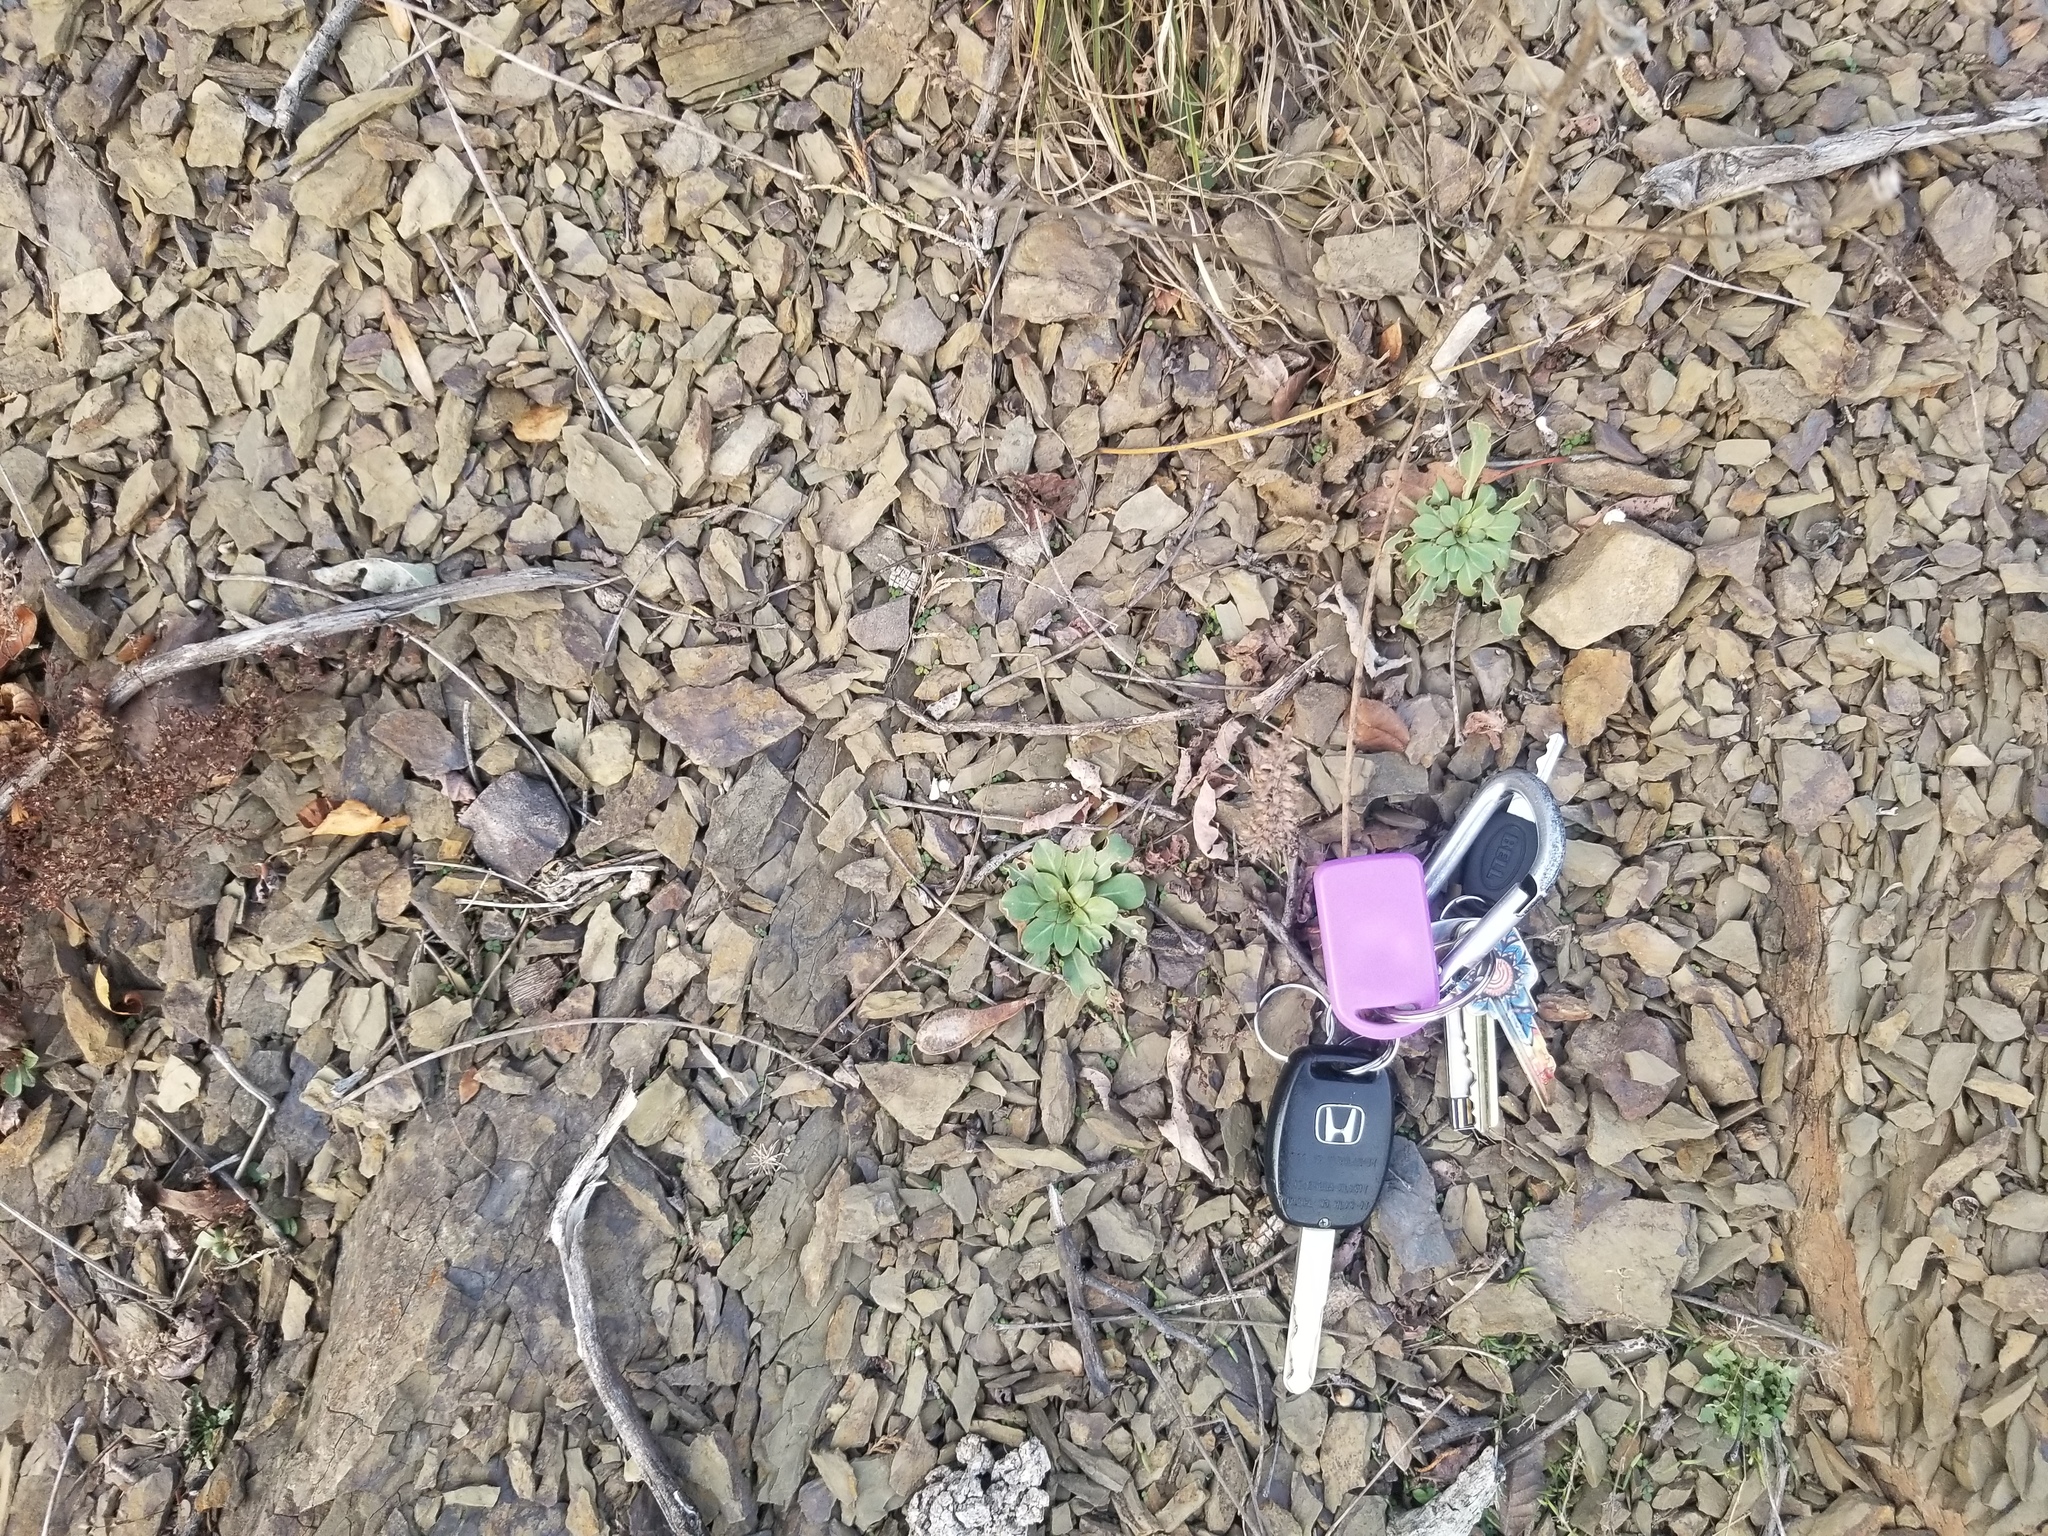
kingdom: Plantae
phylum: Tracheophyta
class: Magnoliopsida
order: Myrtales
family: Onagraceae
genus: Oenothera
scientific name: Oenothera argillicola
